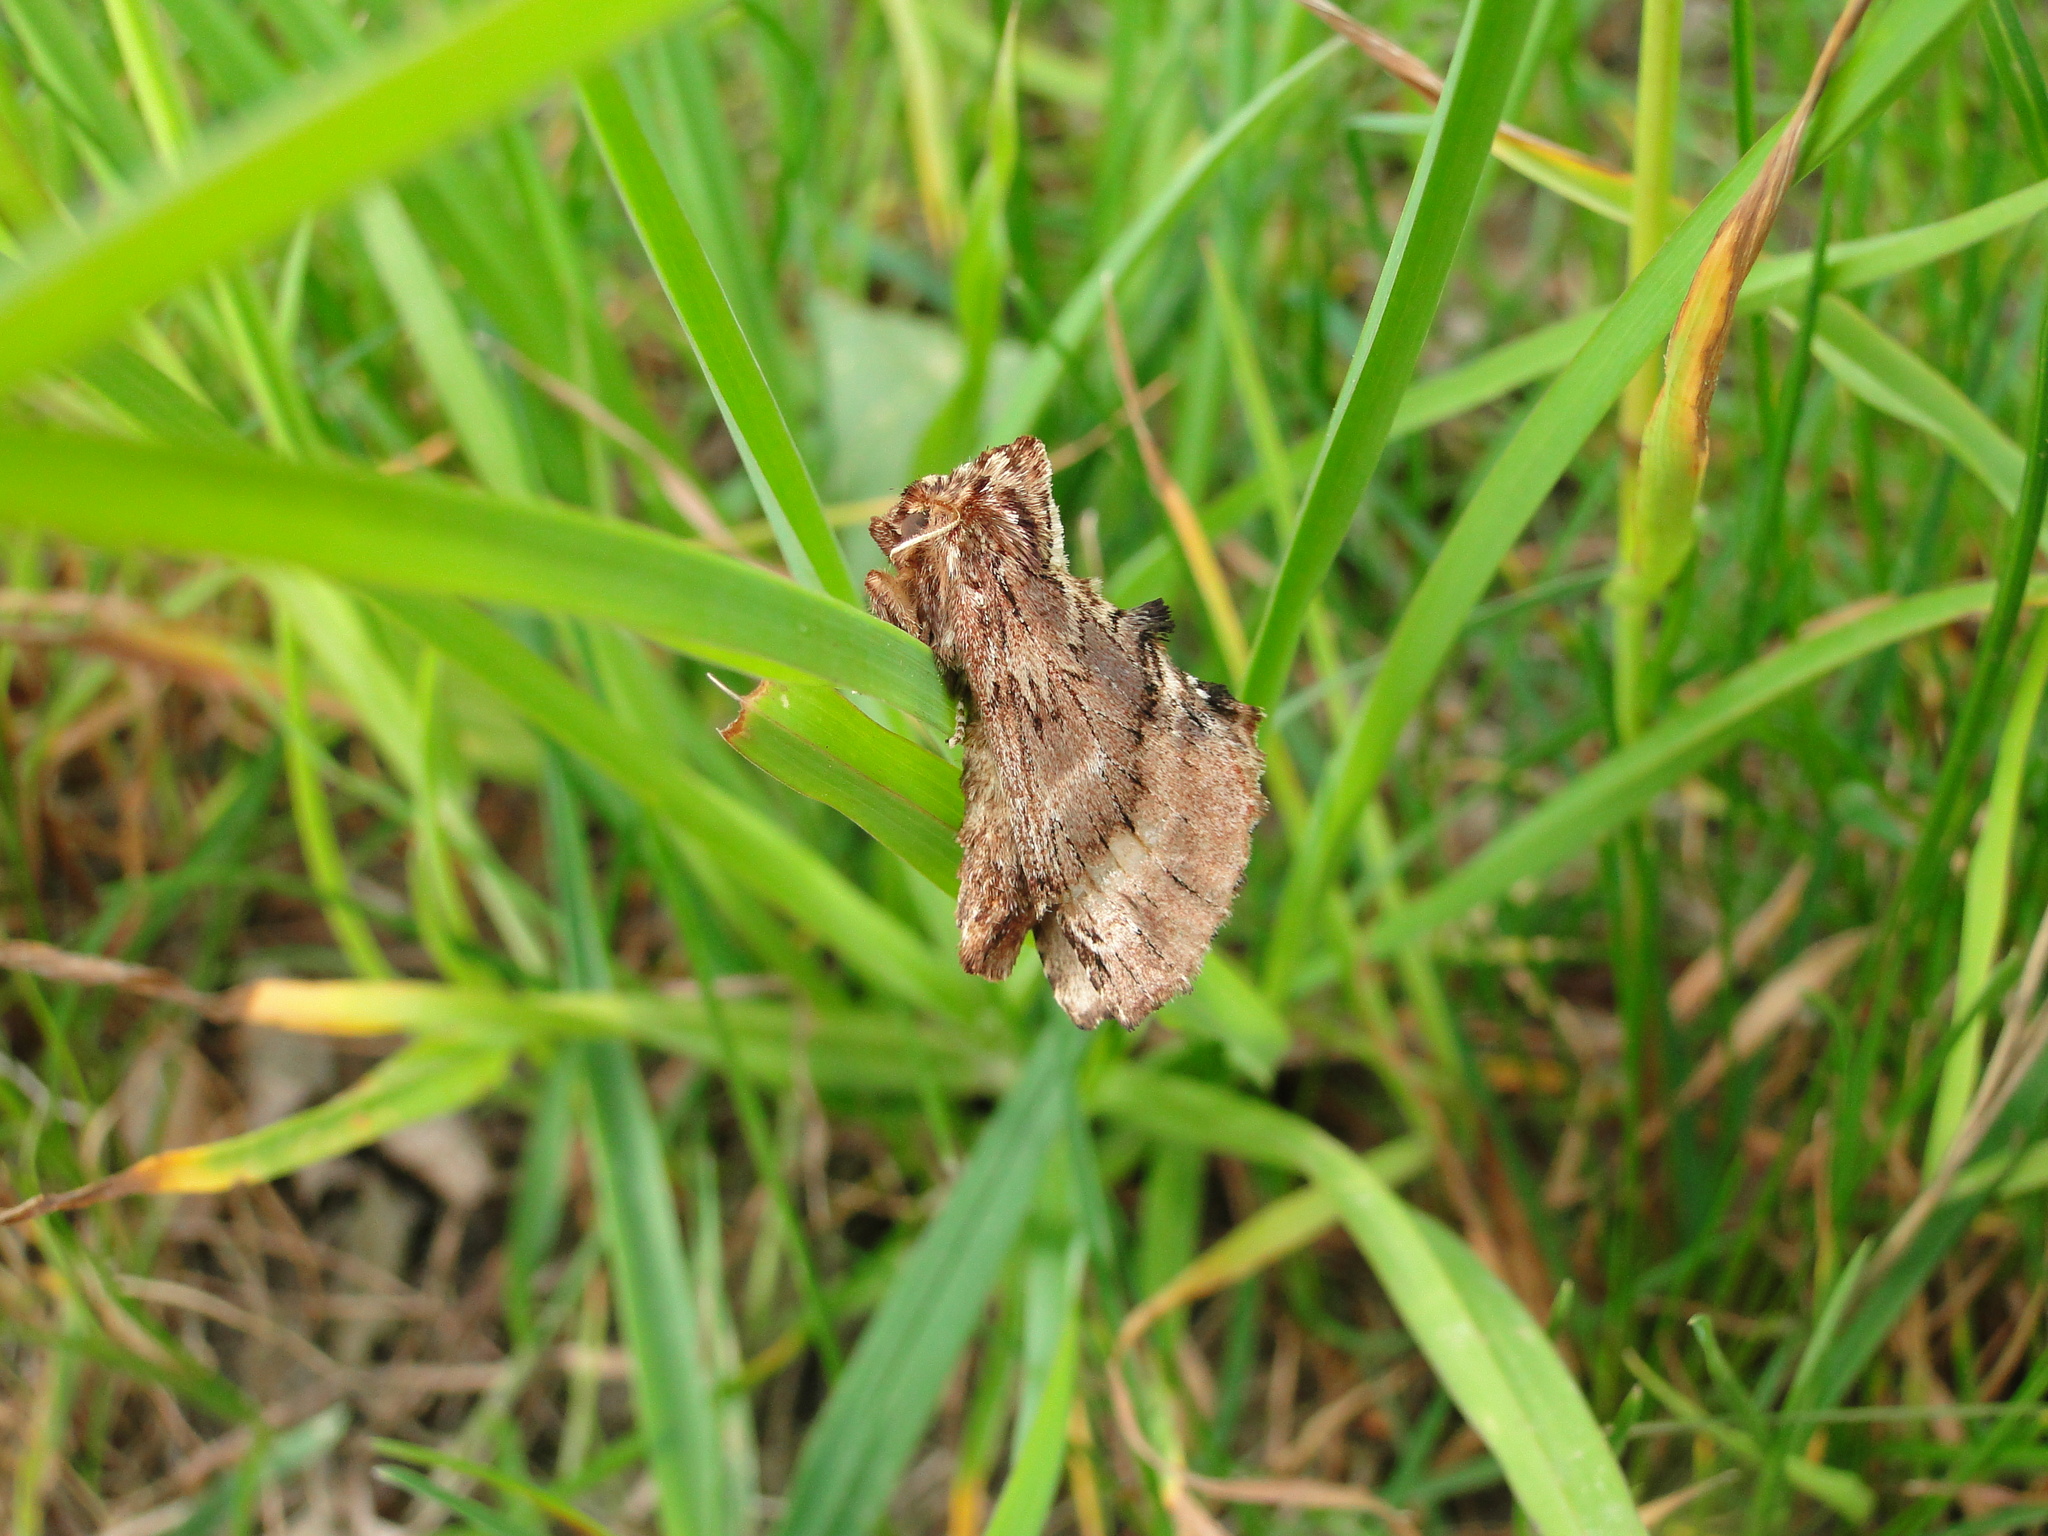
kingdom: Animalia
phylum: Arthropoda
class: Insecta
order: Lepidoptera
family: Notodontidae
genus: Ptilodon
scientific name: Ptilodon capucina
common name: Coxcomb prominent
